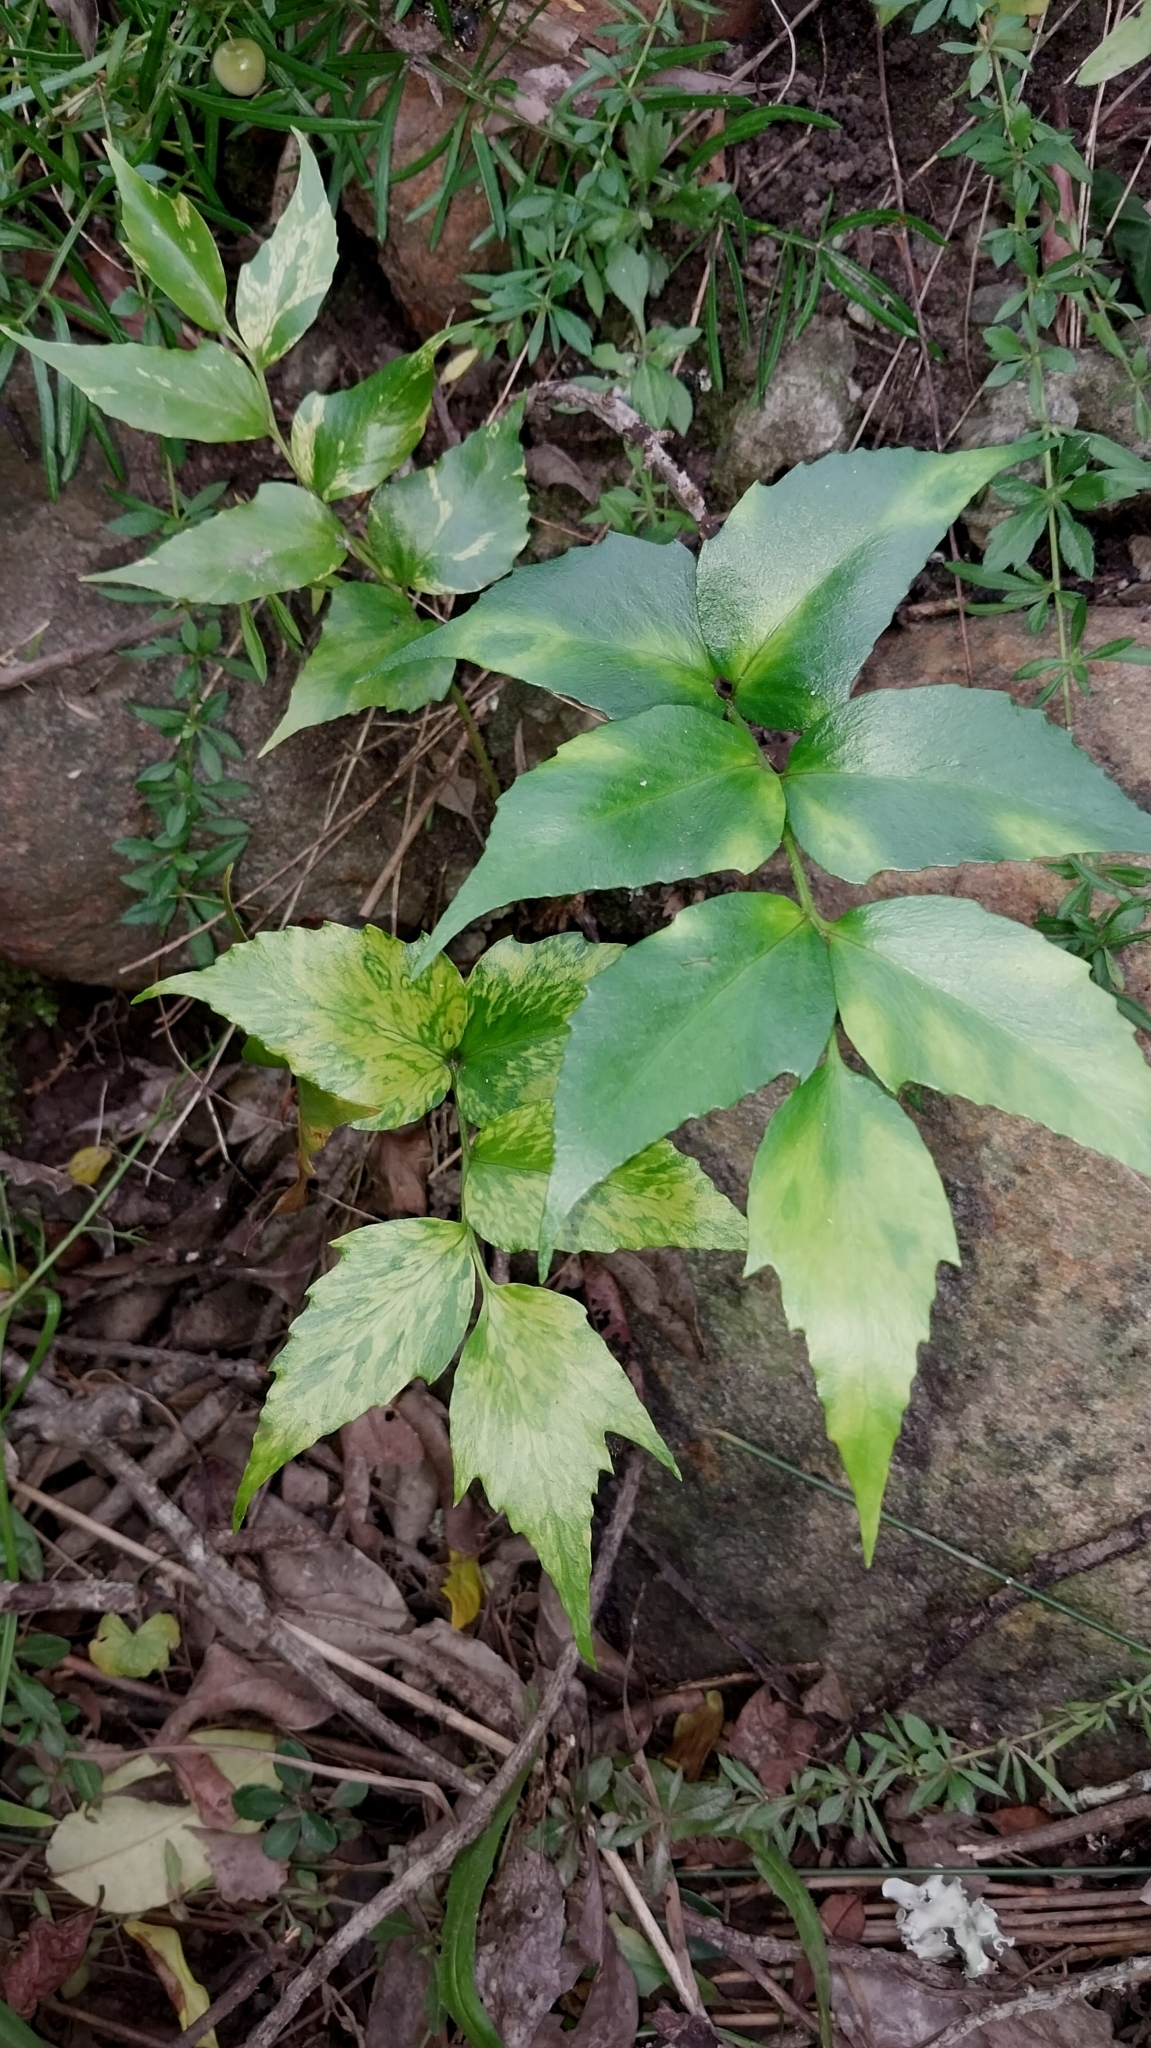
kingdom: Plantae
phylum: Tracheophyta
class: Polypodiopsida
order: Polypodiales
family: Dryopteridaceae
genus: Cyrtomium
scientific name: Cyrtomium falcatum
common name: House holly-fern
